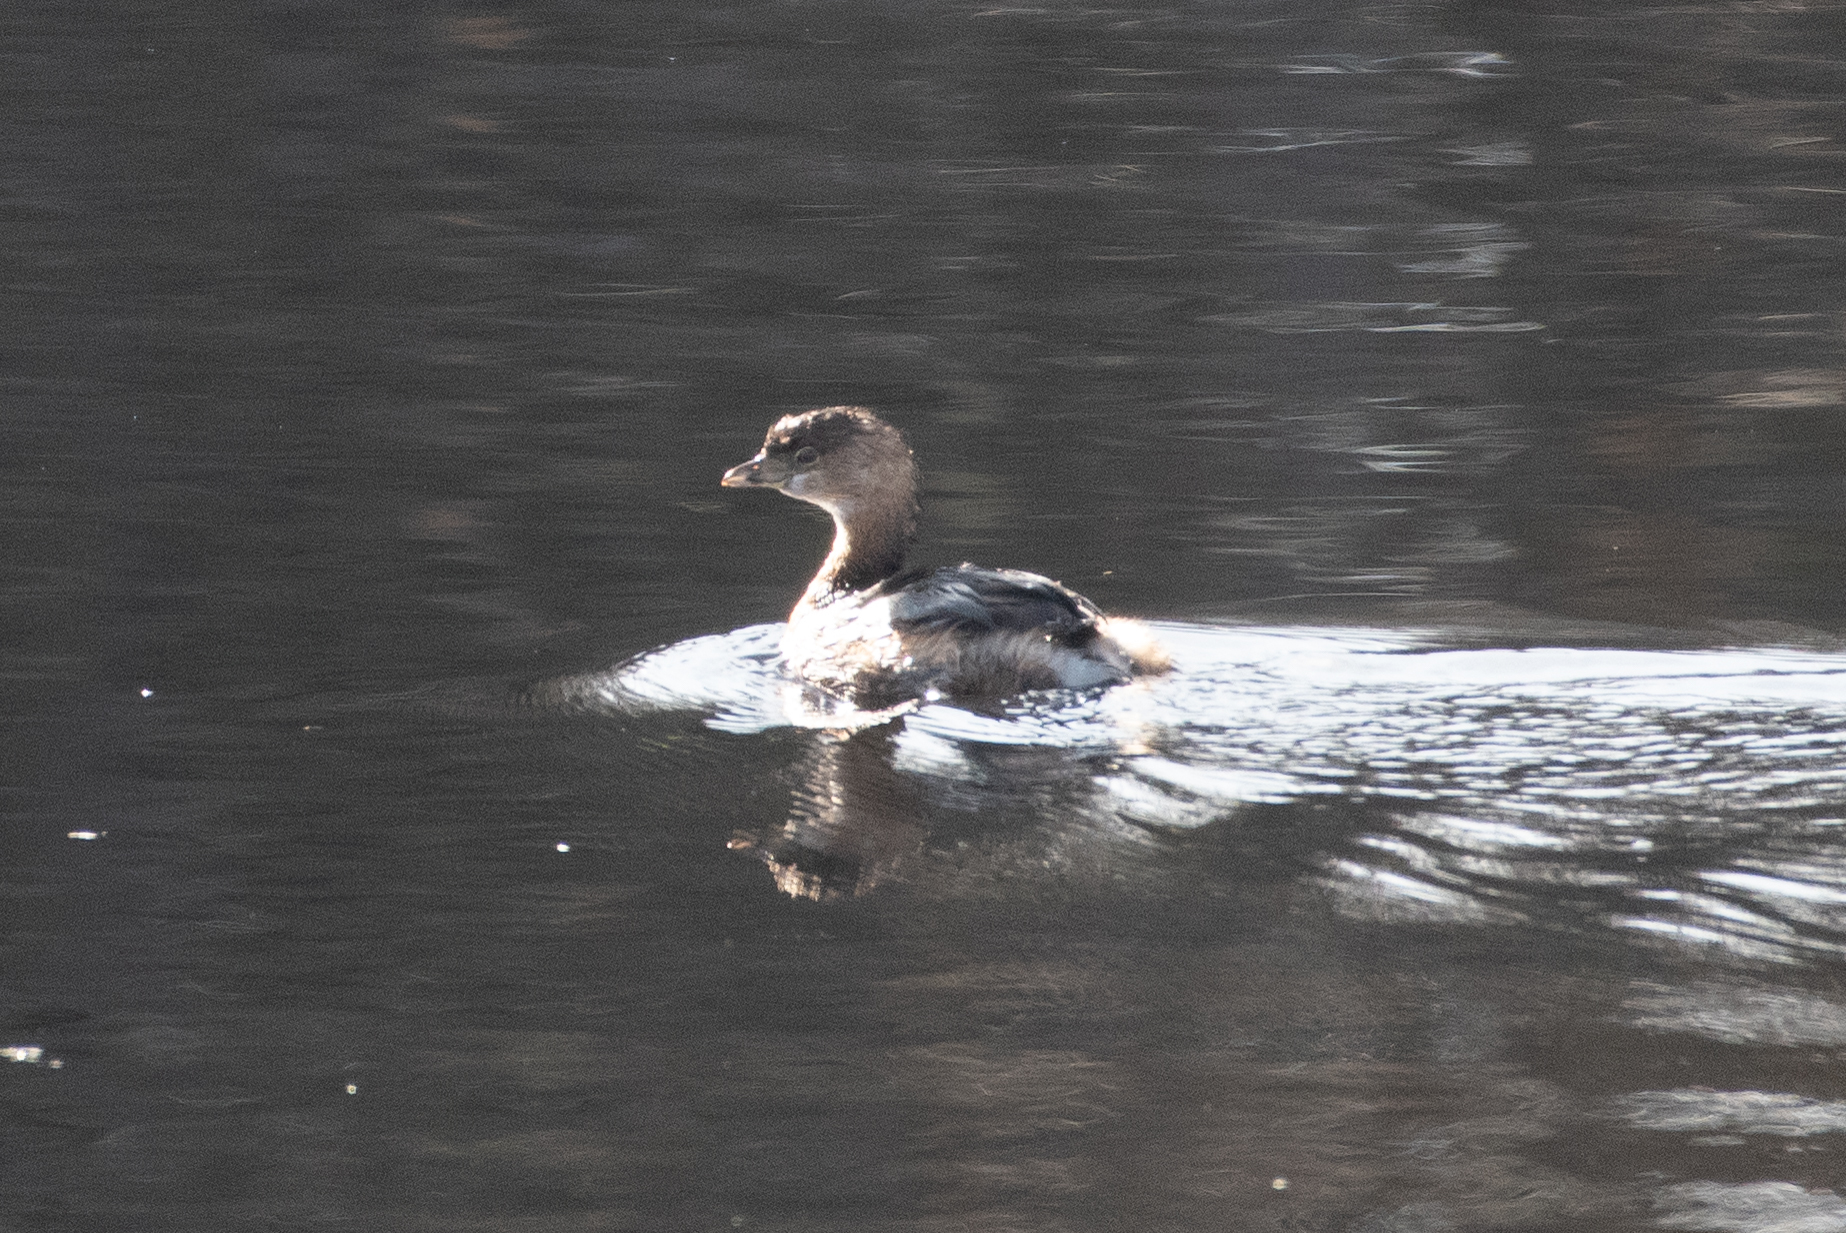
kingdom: Animalia
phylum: Chordata
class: Aves
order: Podicipediformes
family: Podicipedidae
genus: Podilymbus
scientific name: Podilymbus podiceps
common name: Pied-billed grebe
